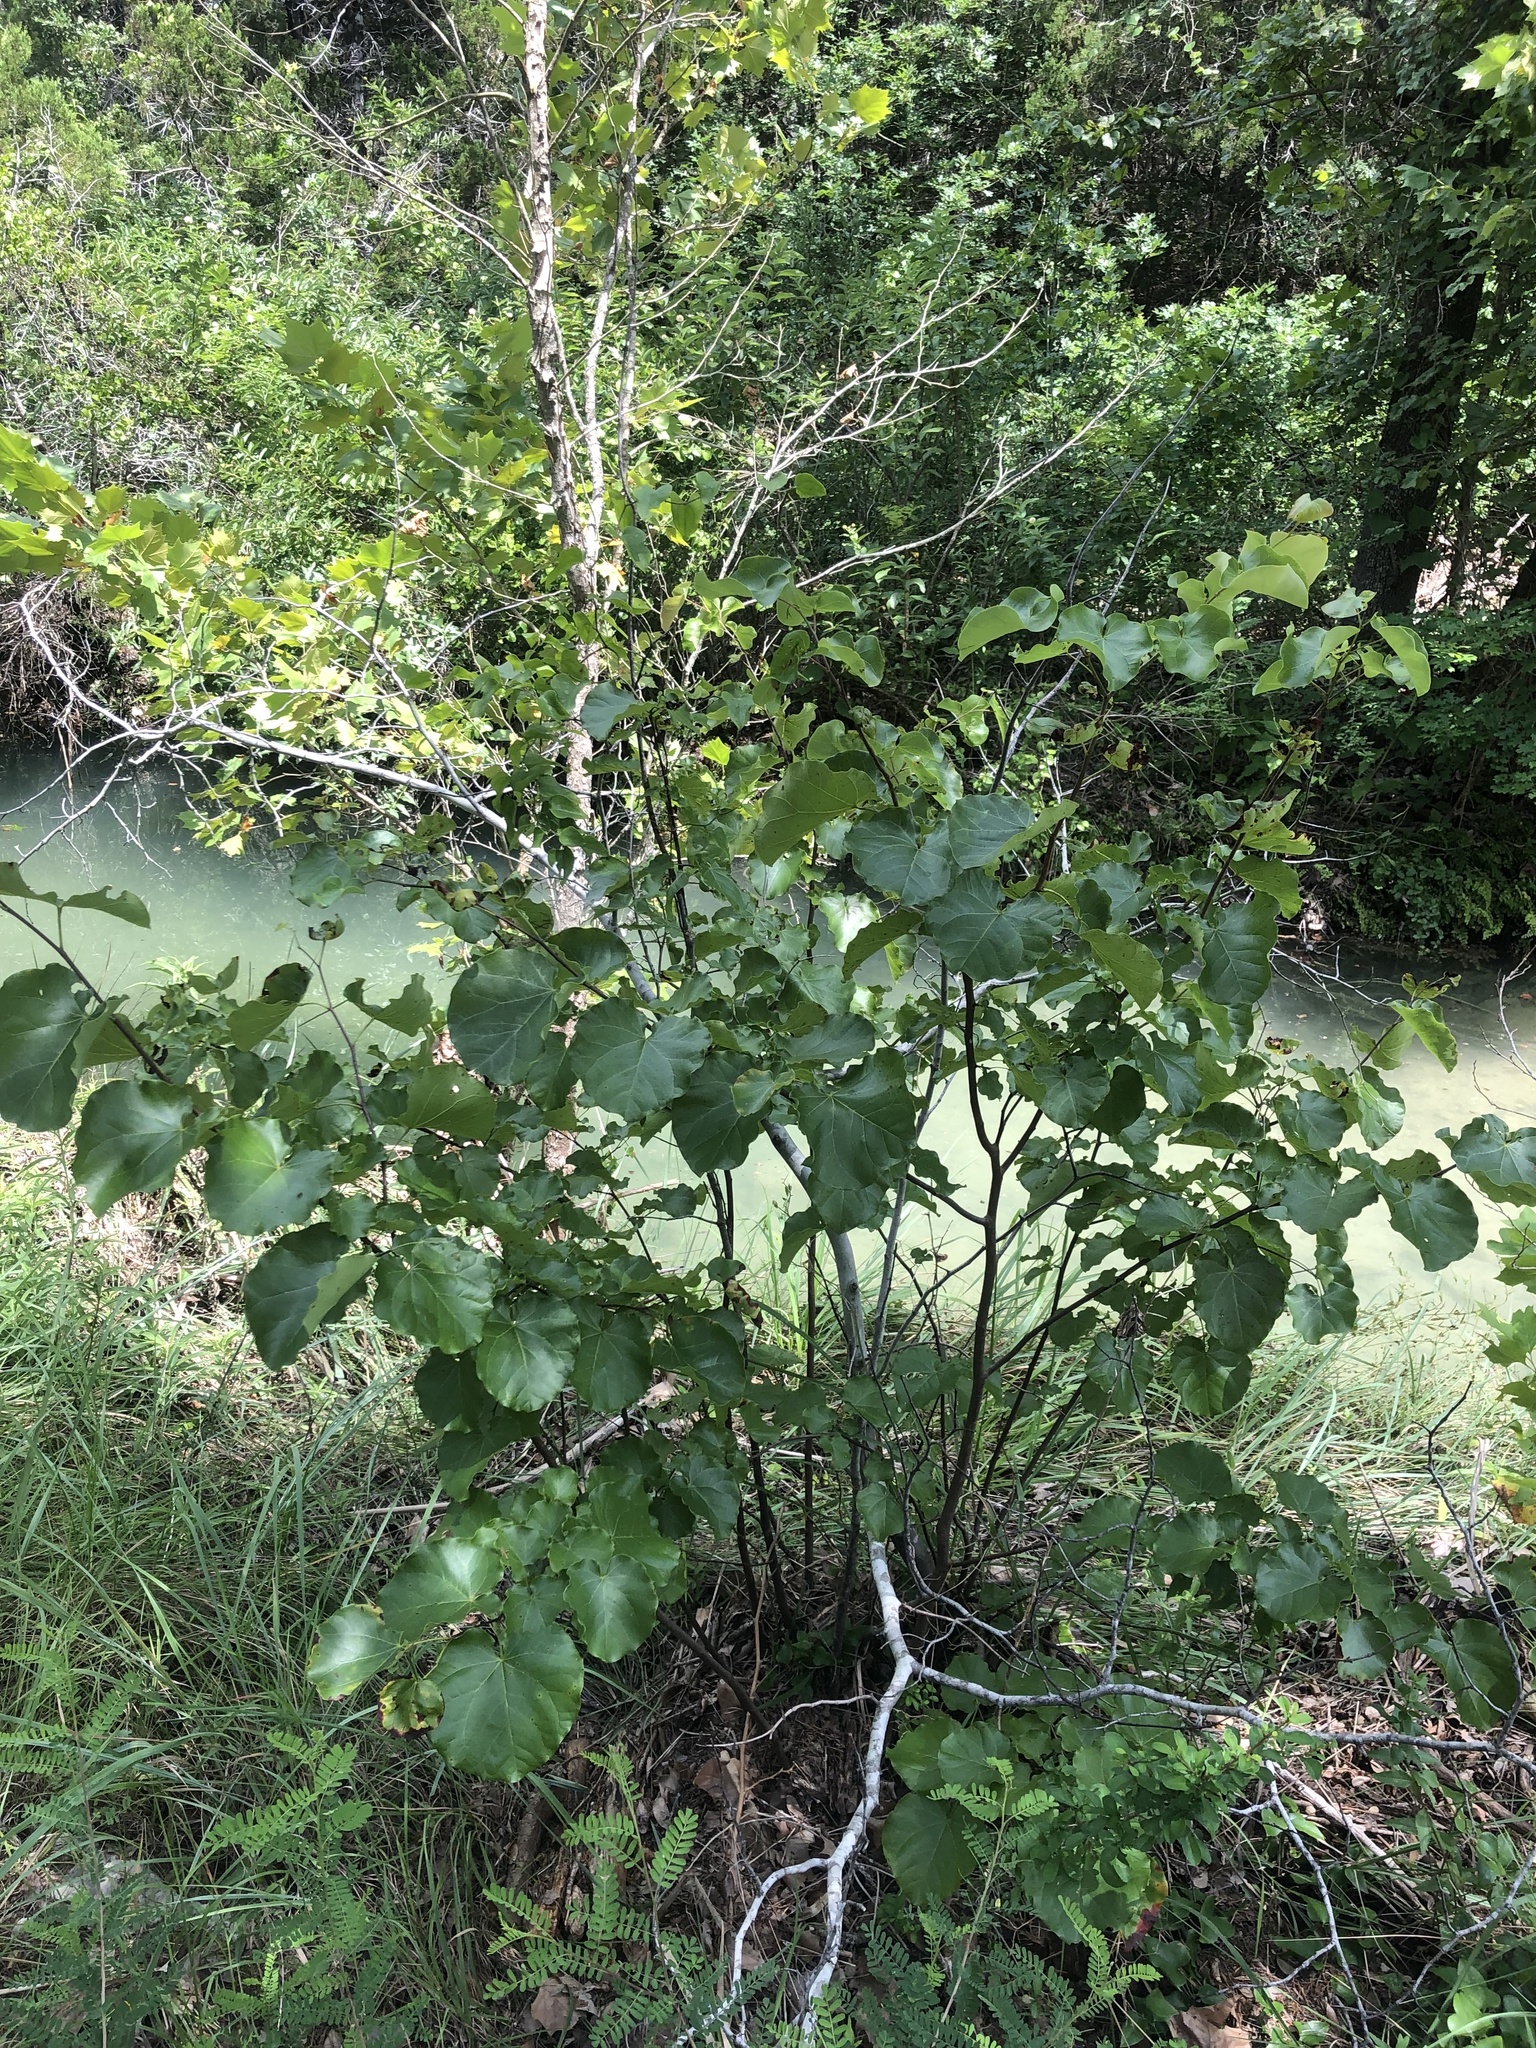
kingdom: Plantae
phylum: Tracheophyta
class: Magnoliopsida
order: Fabales
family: Fabaceae
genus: Cercis
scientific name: Cercis canadensis
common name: Eastern redbud
